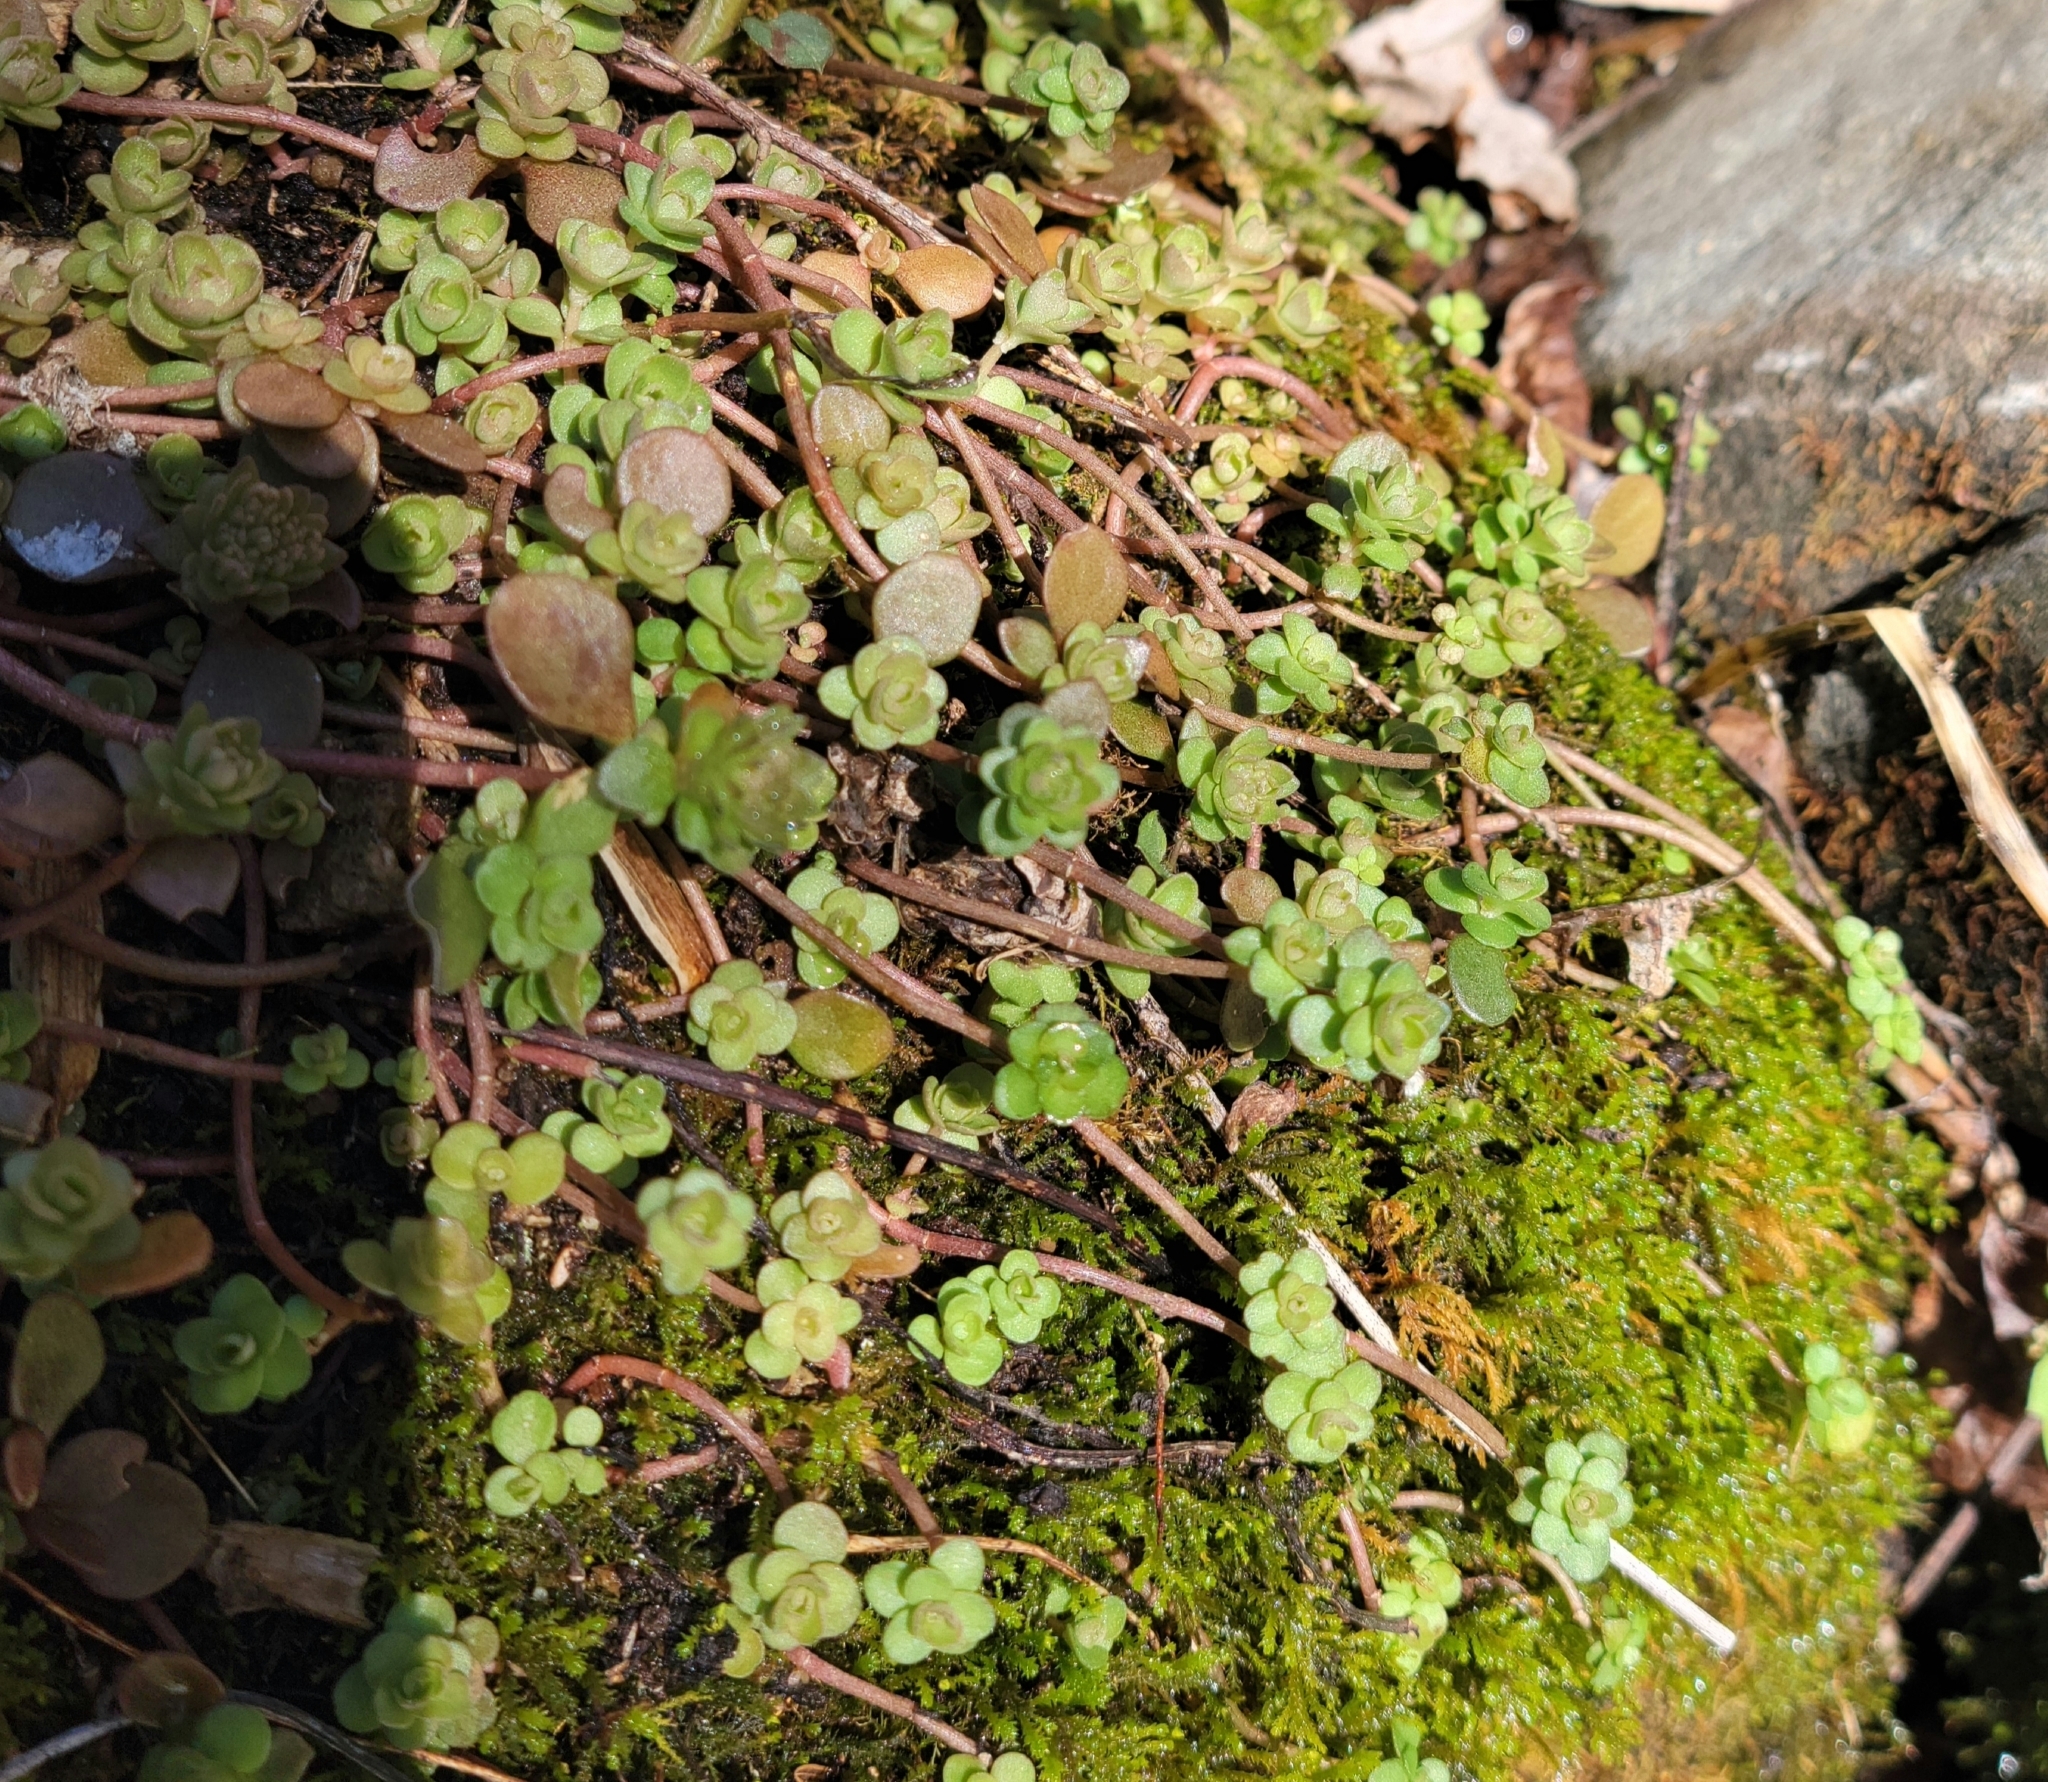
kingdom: Plantae
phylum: Tracheophyta
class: Magnoliopsida
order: Saxifragales
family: Crassulaceae
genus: Sedum
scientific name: Sedum ternatum
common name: Wild stonecrop
